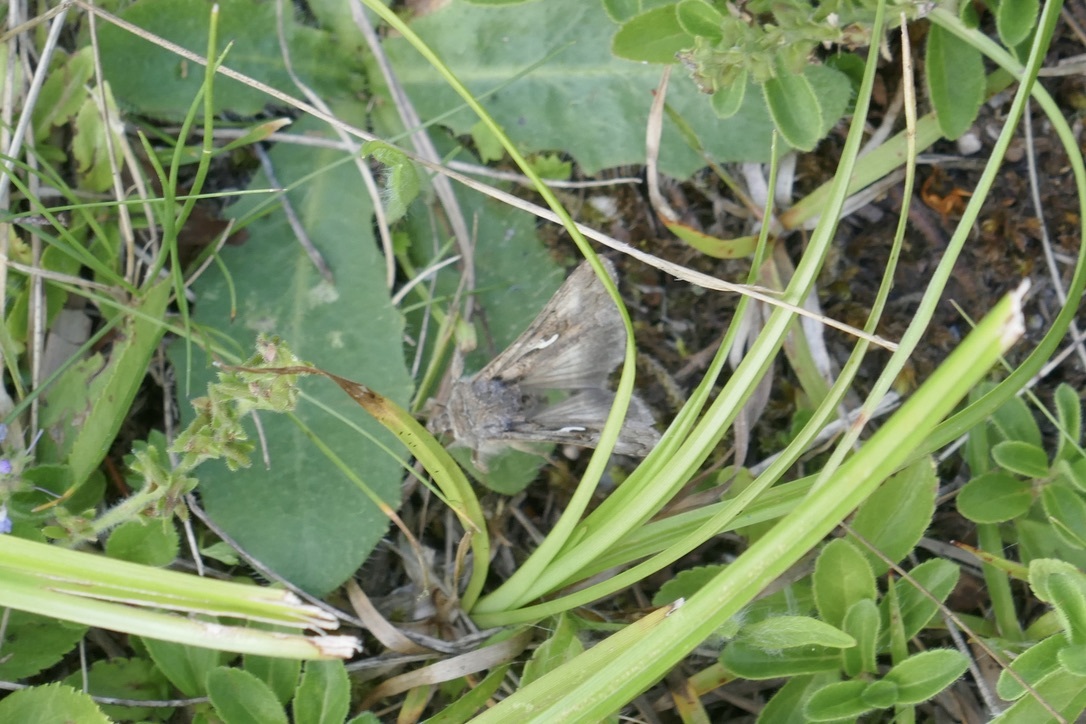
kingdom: Animalia
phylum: Arthropoda
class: Insecta
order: Lepidoptera
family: Noctuidae
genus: Autographa
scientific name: Autographa gamma
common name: Silver y
